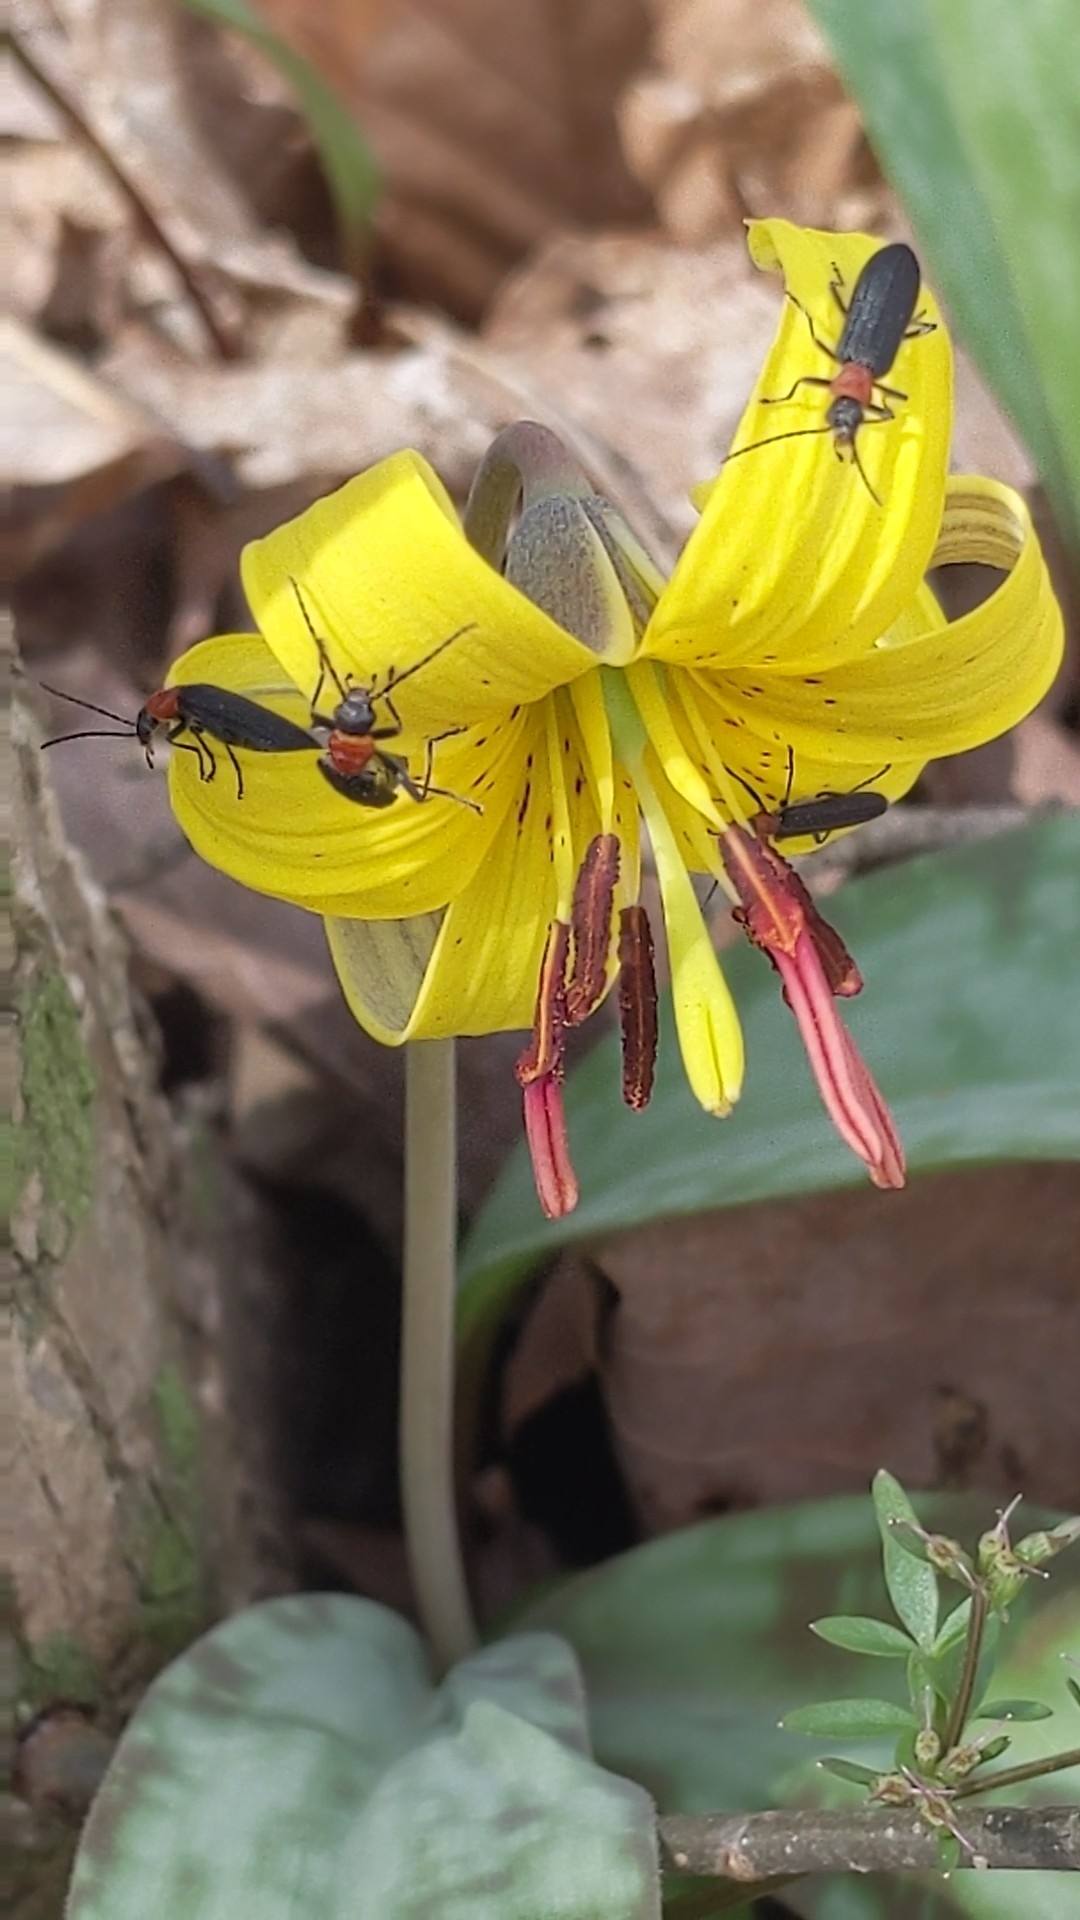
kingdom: Animalia
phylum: Arthropoda
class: Insecta
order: Coleoptera
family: Oedemeridae
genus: Ischnomera
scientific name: Ischnomera
